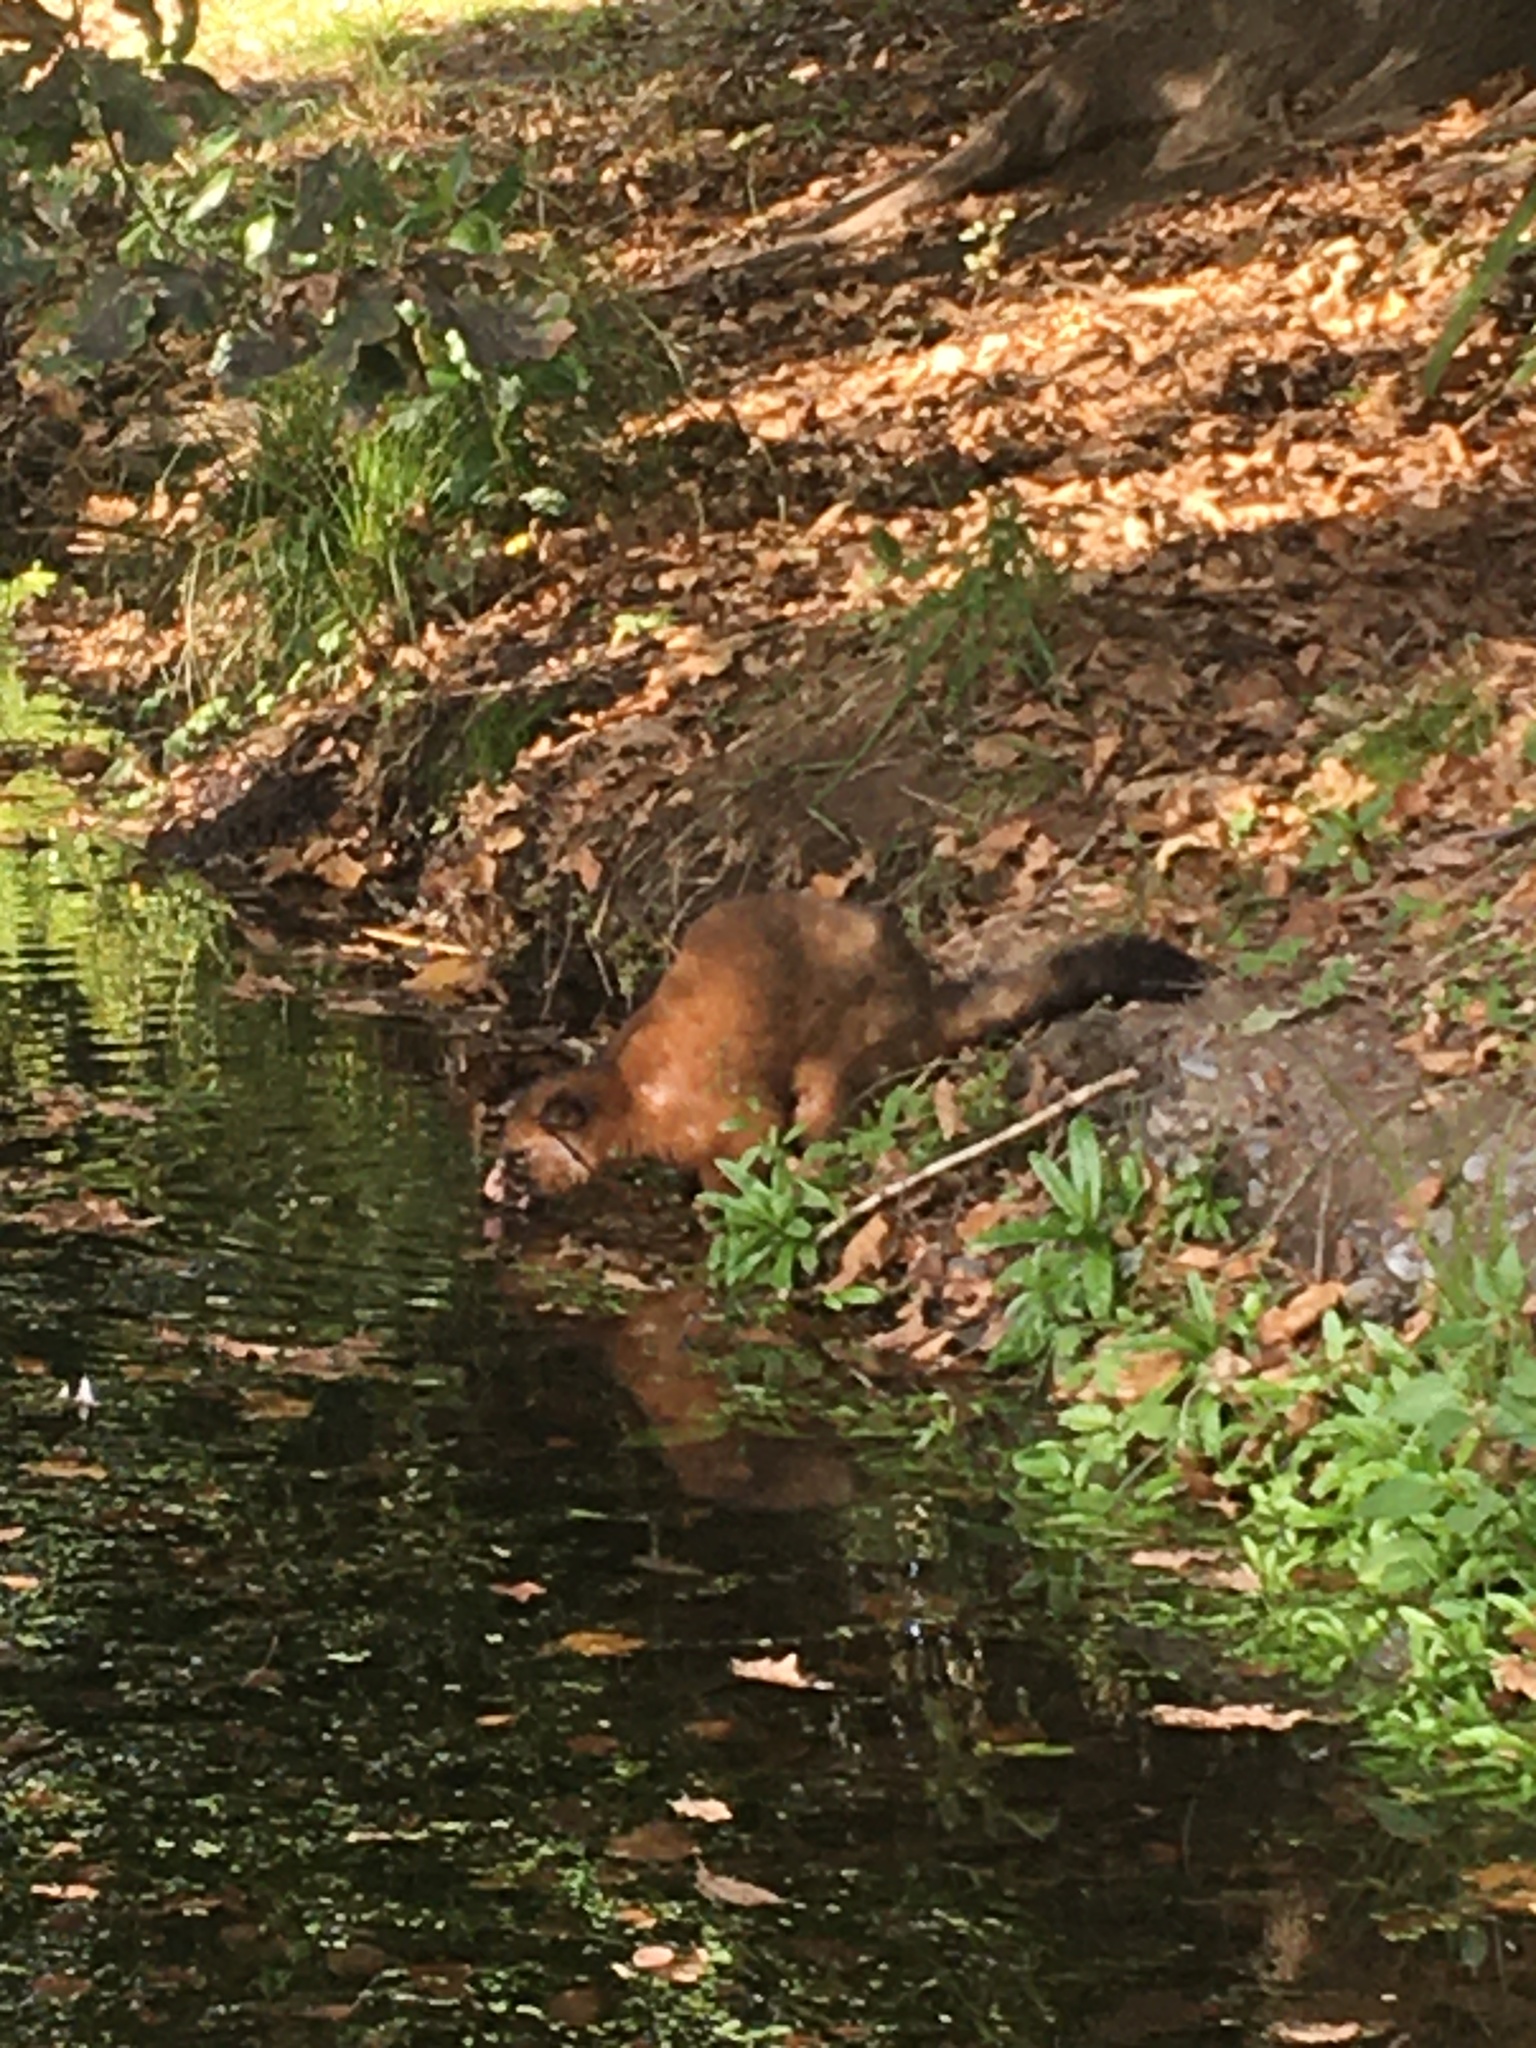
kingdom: Animalia
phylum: Chordata
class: Mammalia
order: Diprotodontia
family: Phalangeridae
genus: Trichosurus
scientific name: Trichosurus vulpecula
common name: Common brushtail
